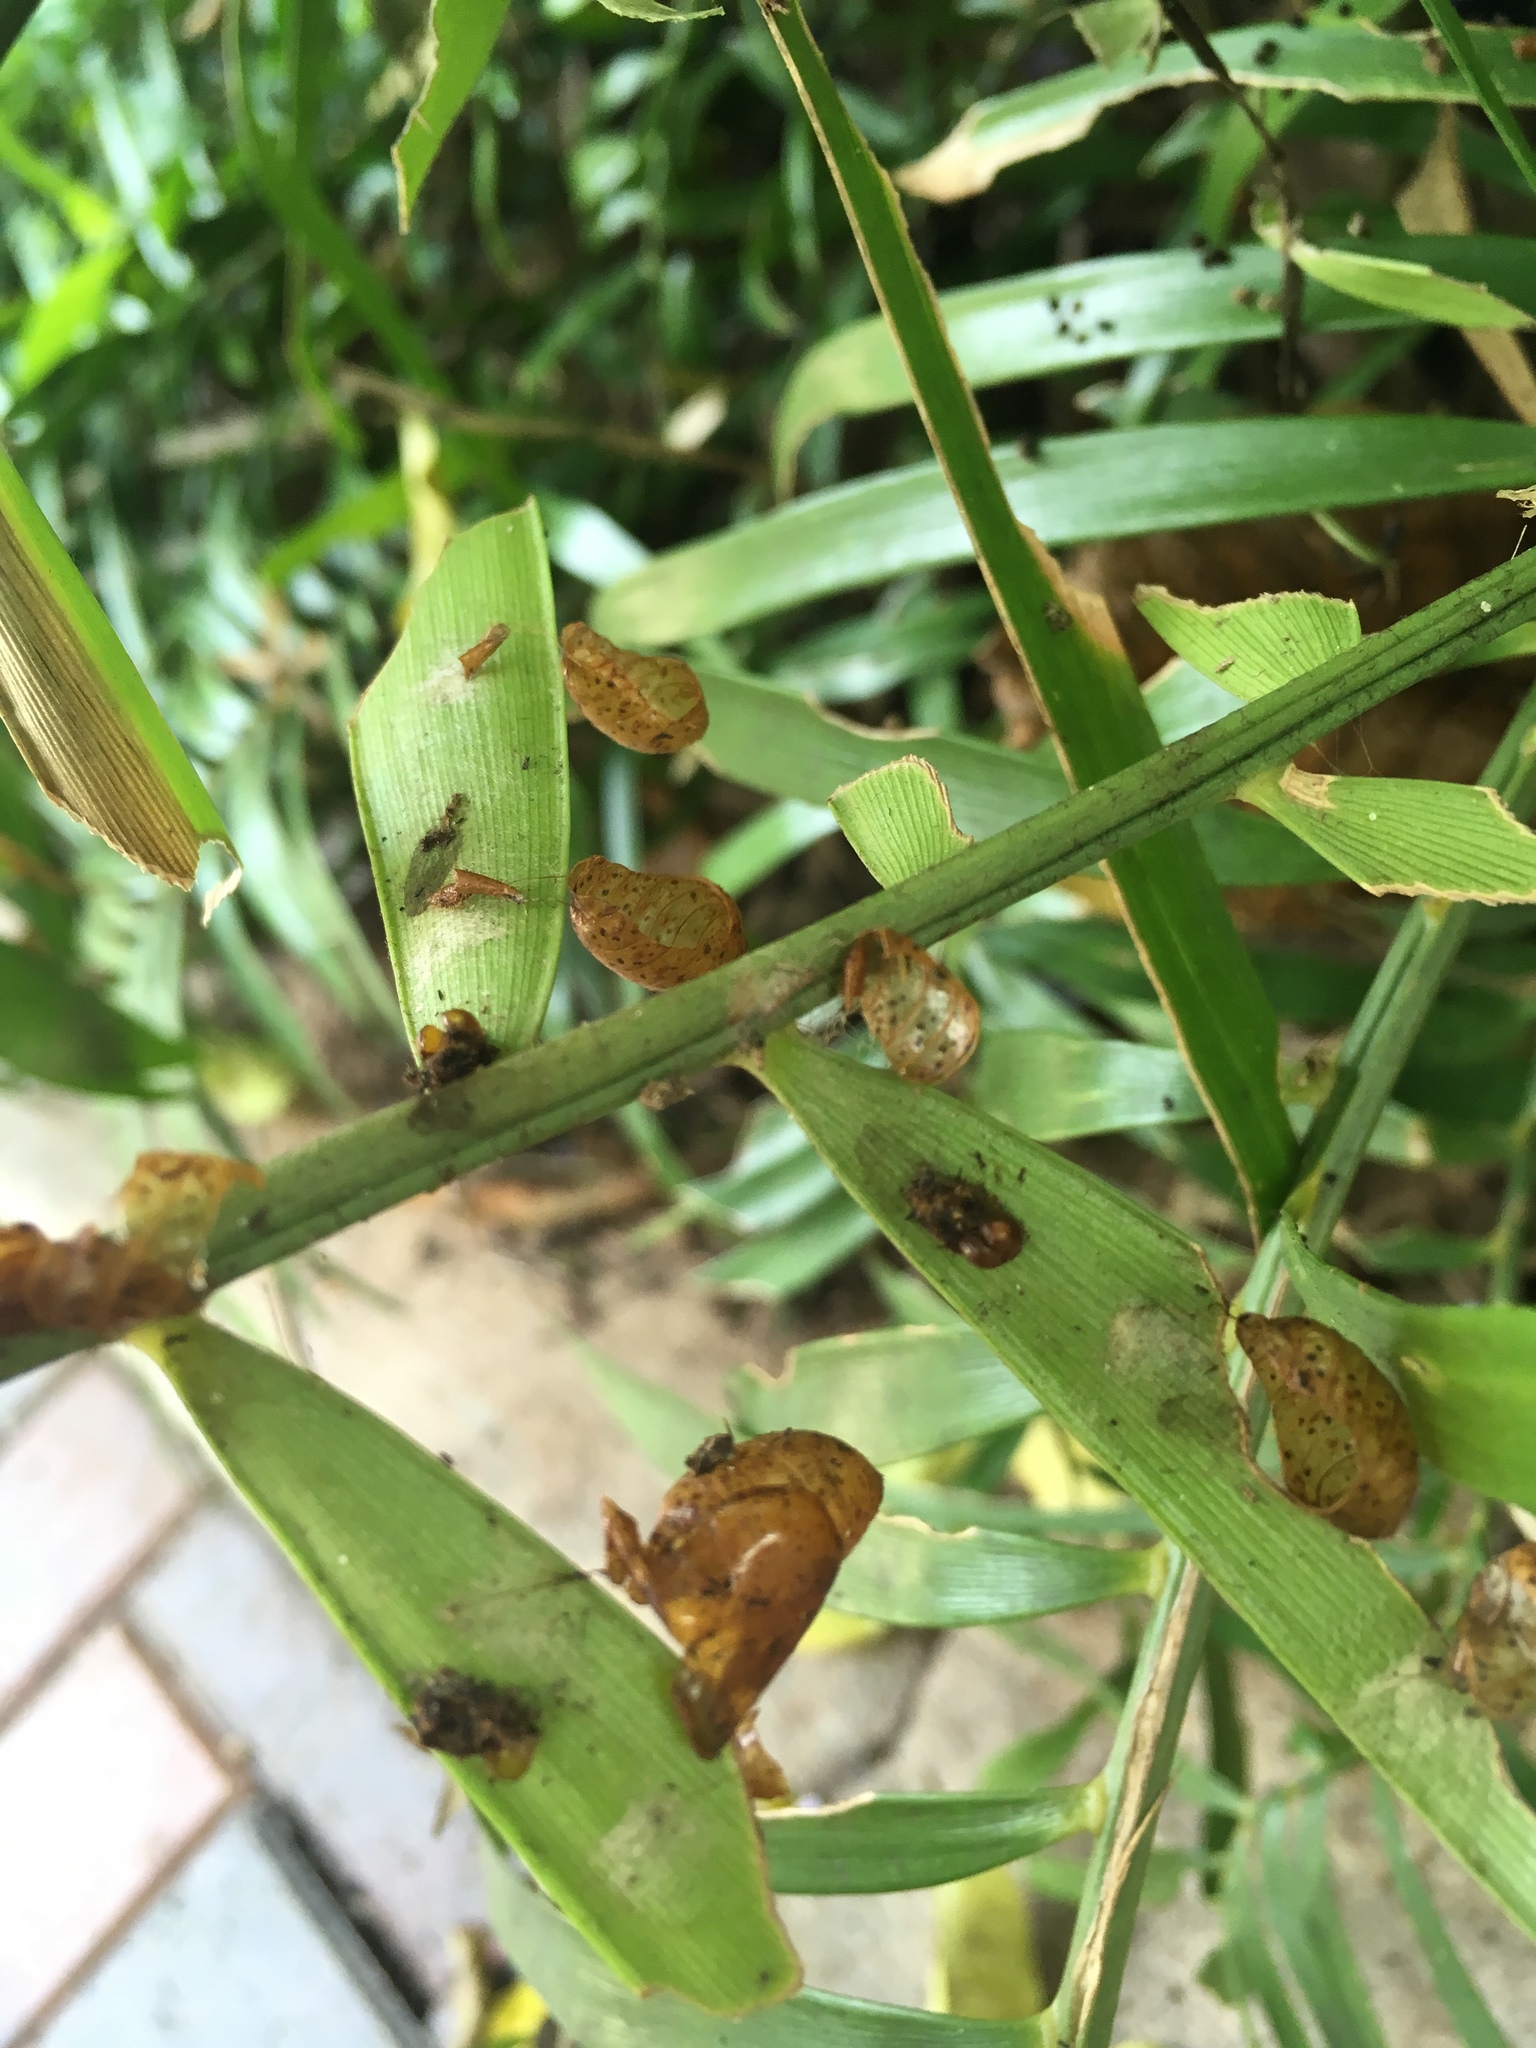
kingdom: Animalia
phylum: Arthropoda
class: Insecta
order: Lepidoptera
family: Lycaenidae
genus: Eumaeus
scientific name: Eumaeus atala
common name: Atala
